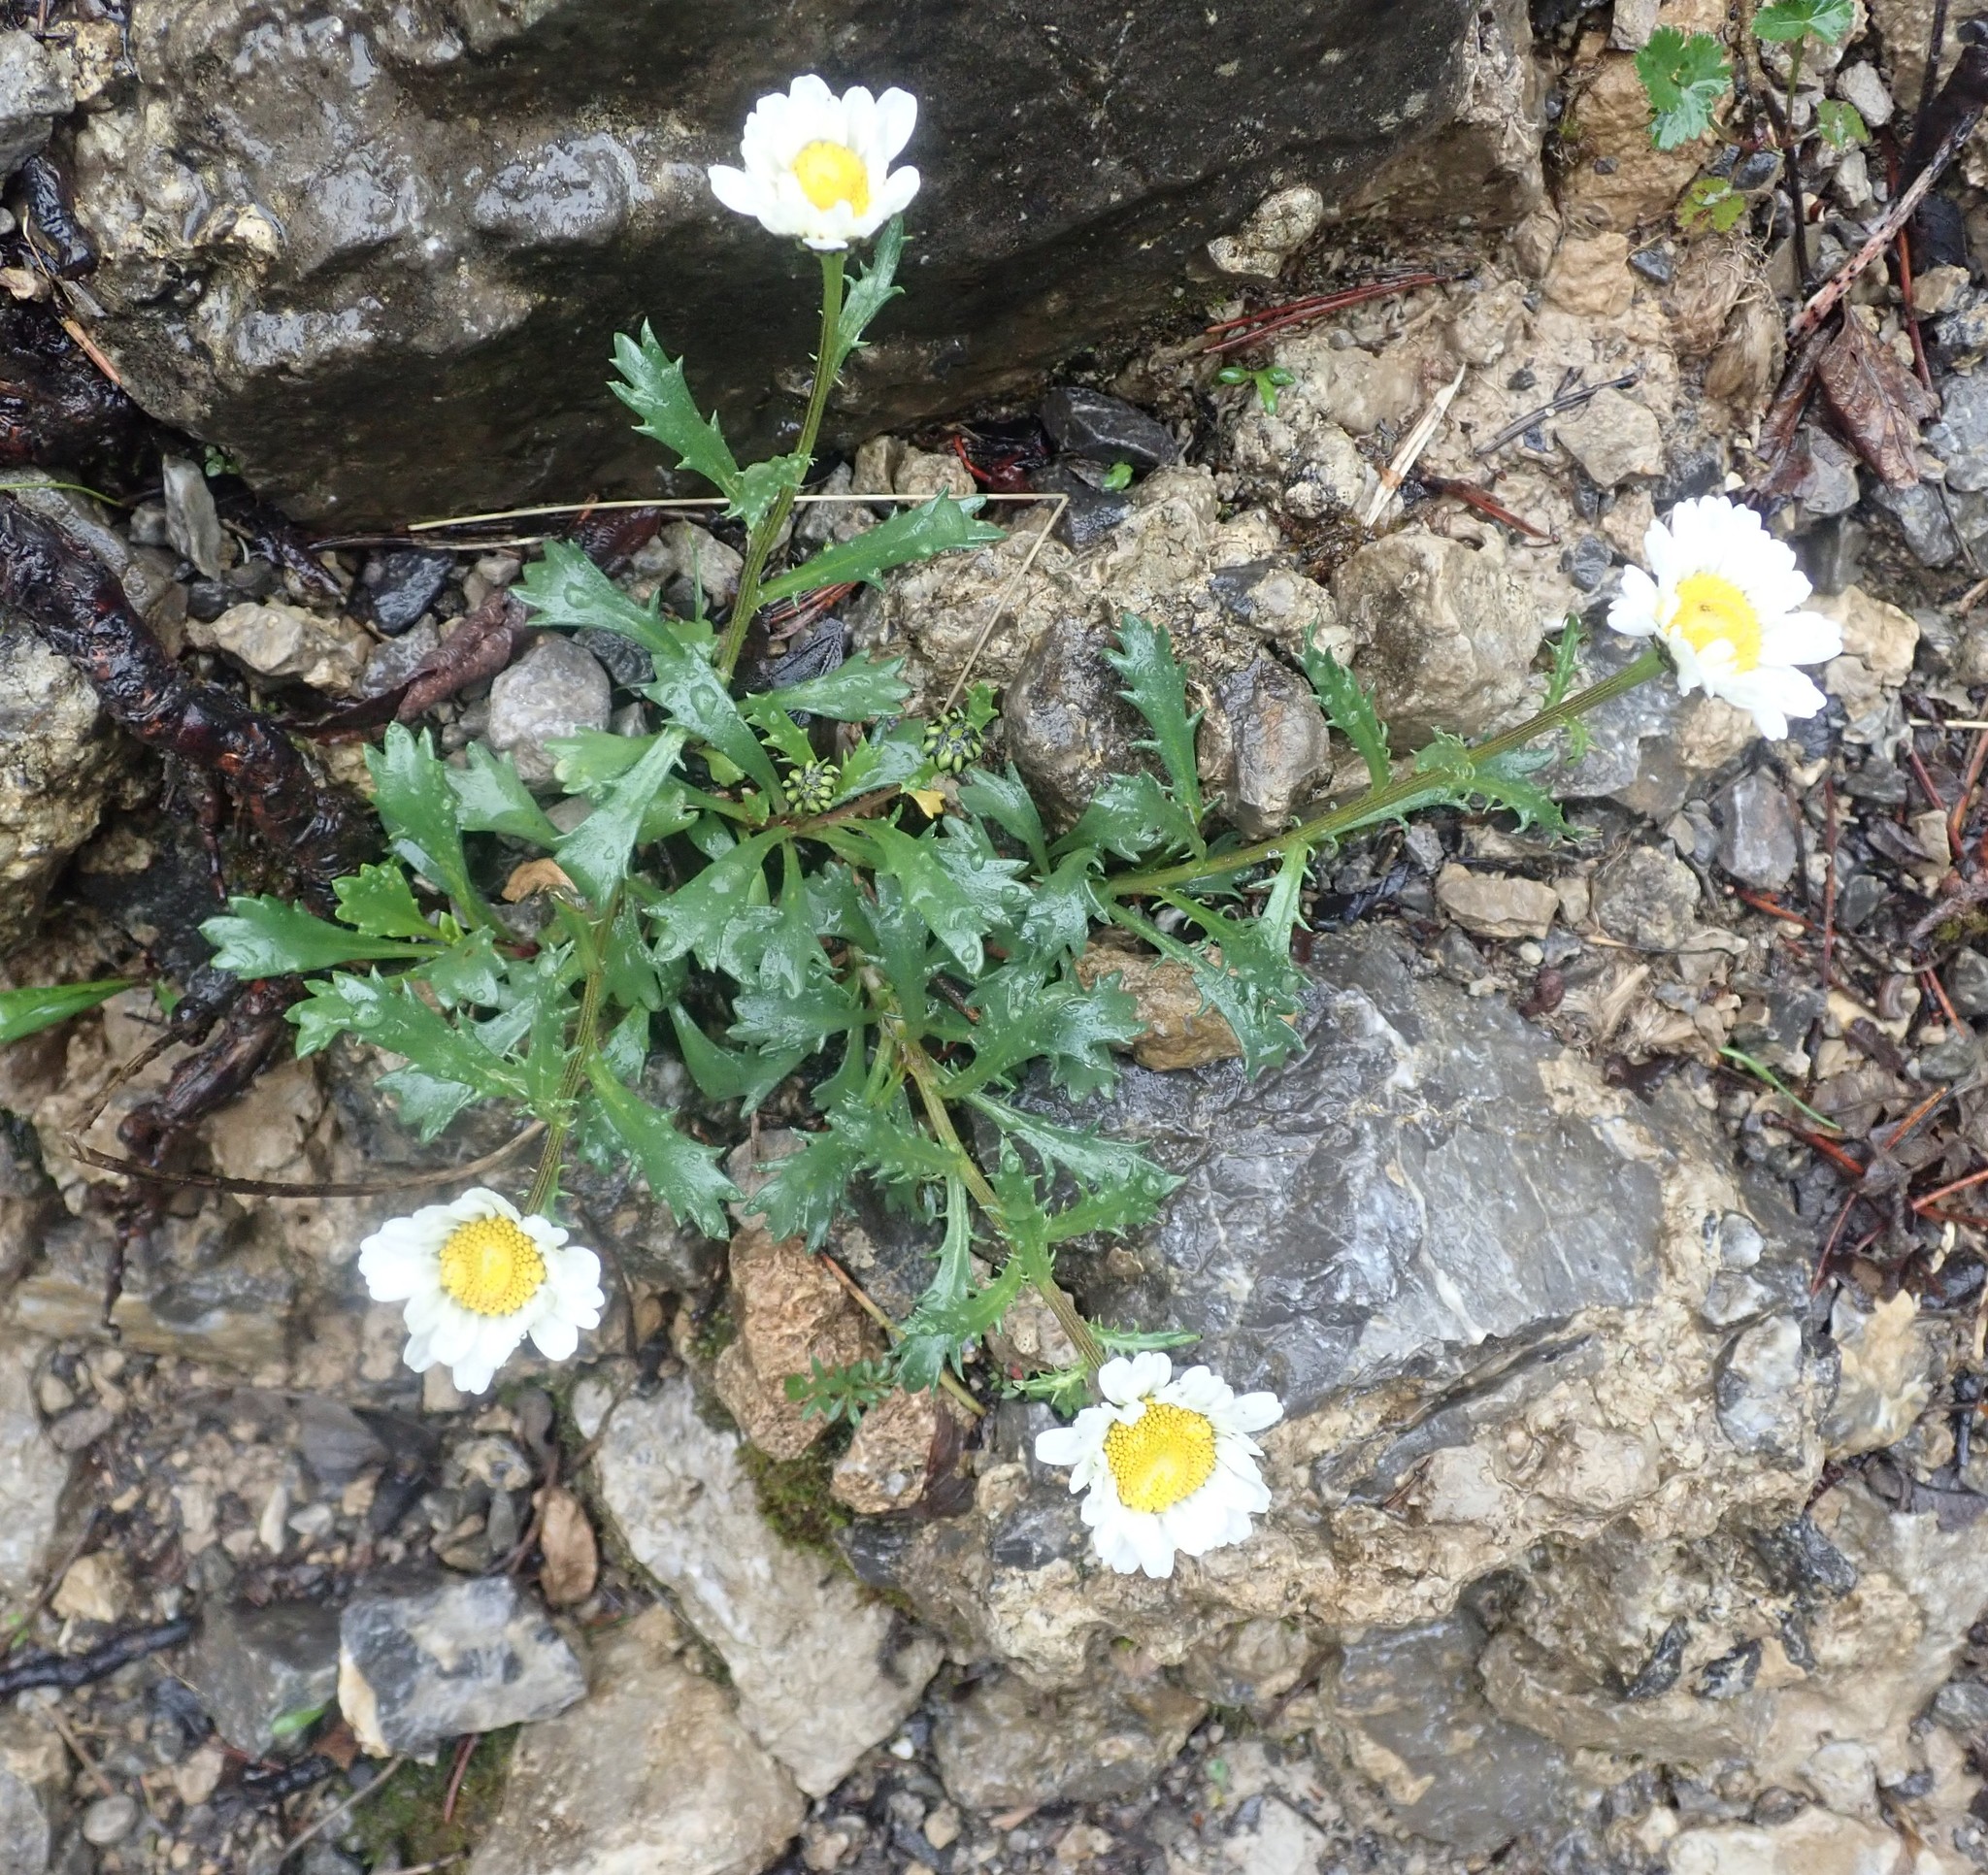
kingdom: Plantae
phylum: Tracheophyta
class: Magnoliopsida
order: Asterales
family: Asteraceae
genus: Leucanthemum
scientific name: Leucanthemum halleri
